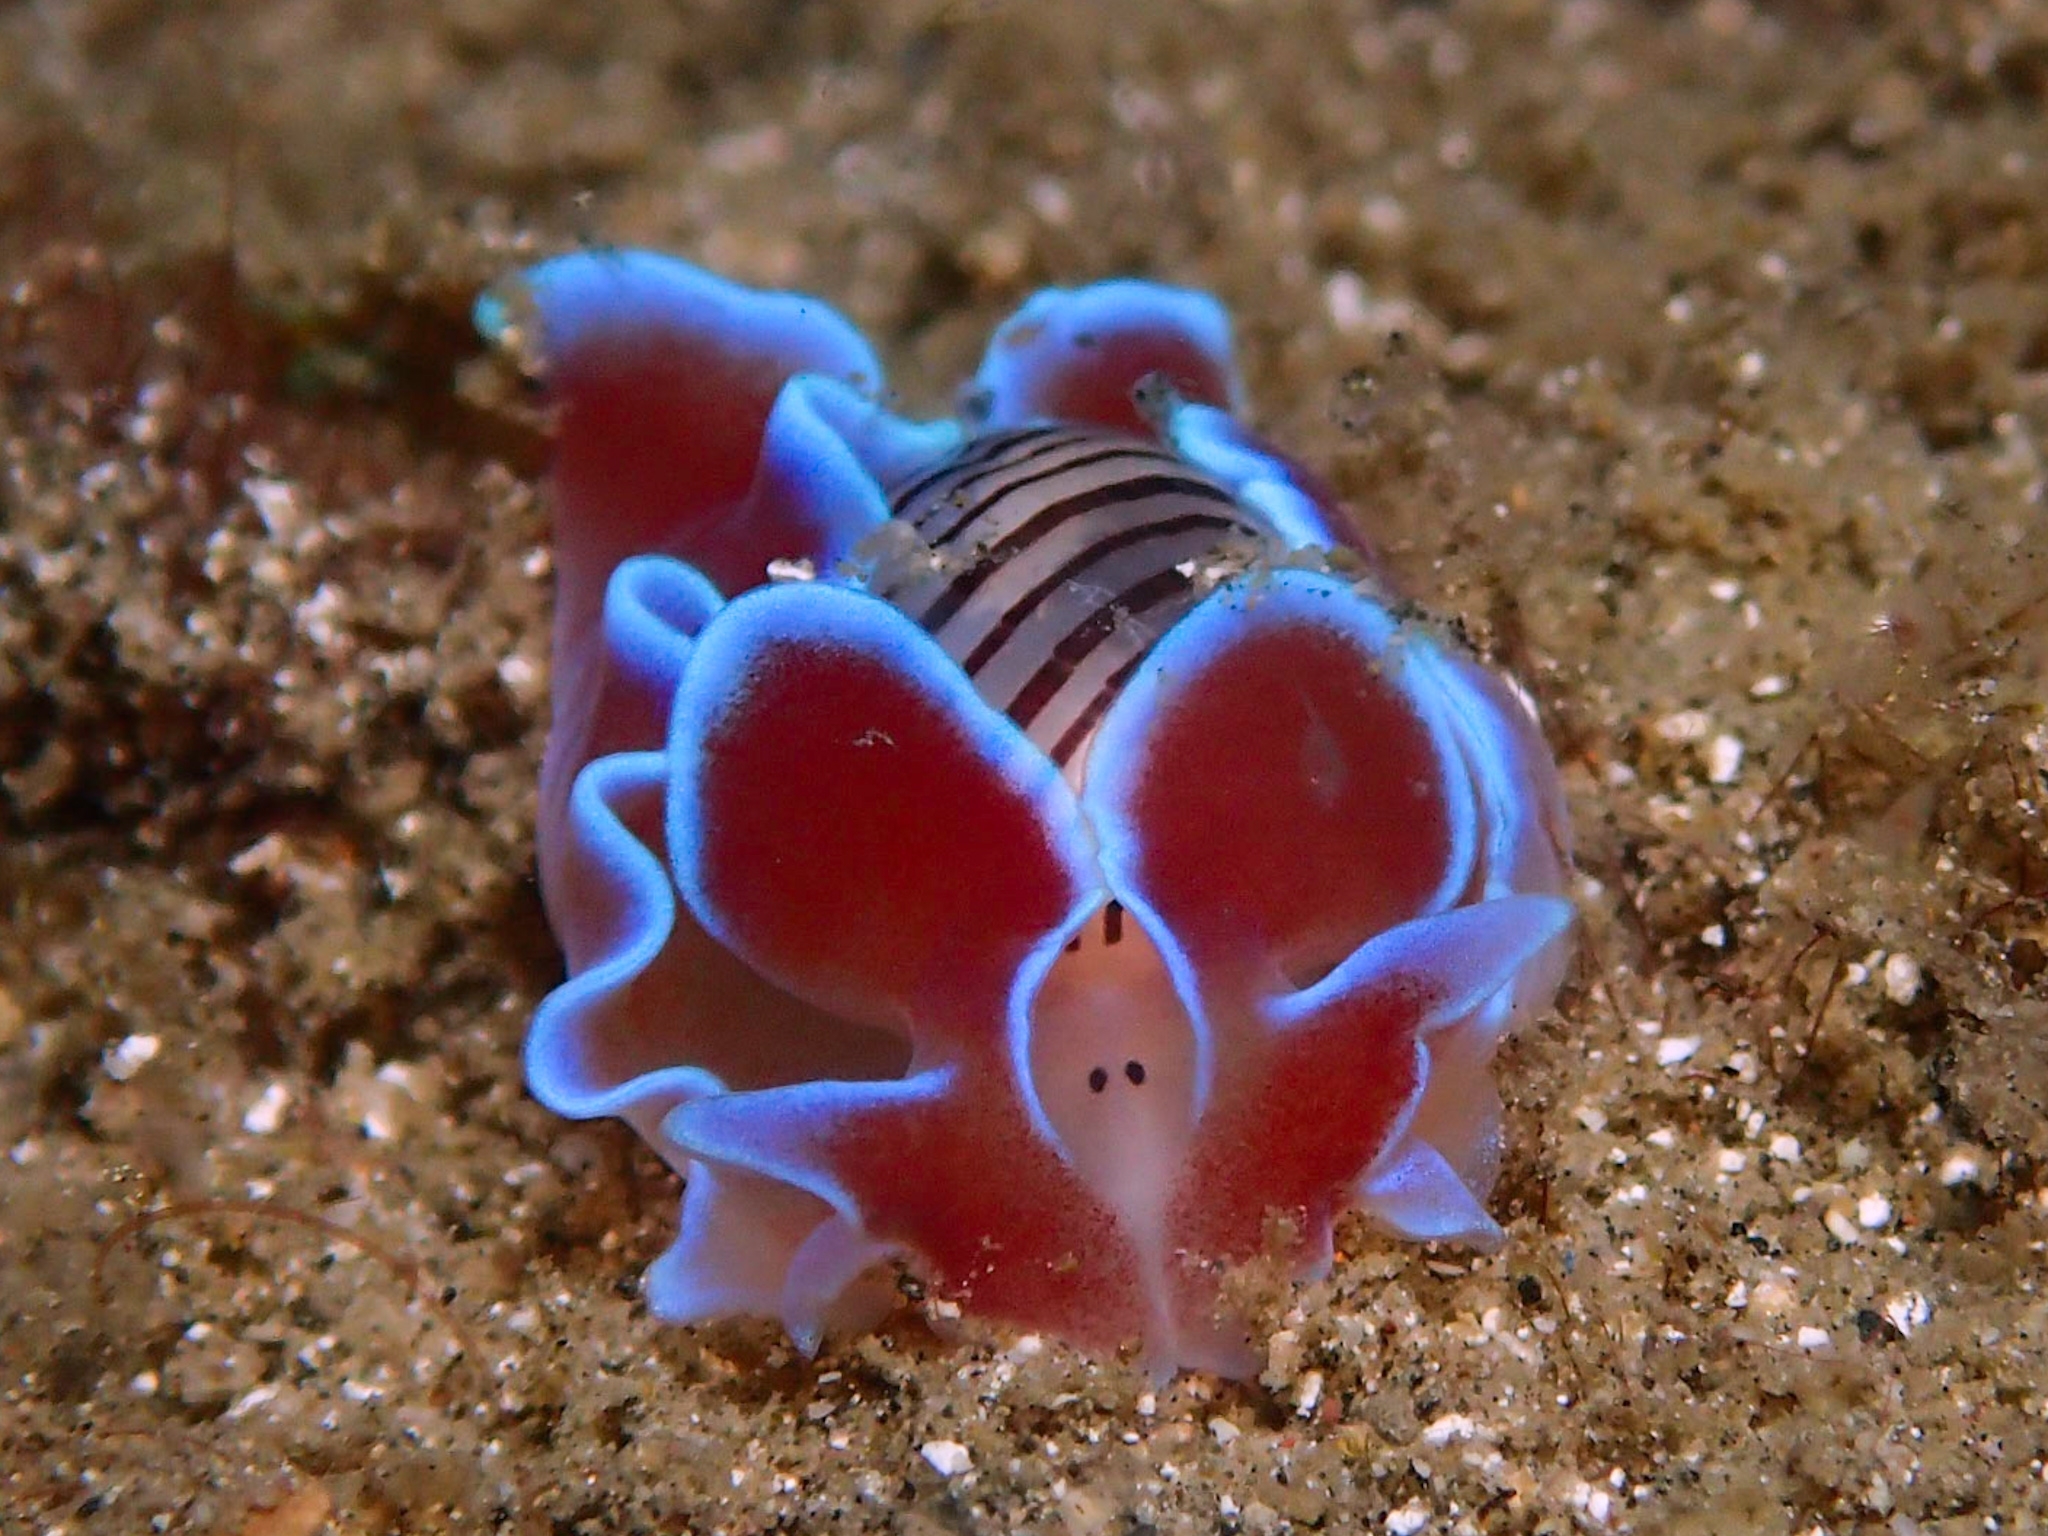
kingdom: Animalia
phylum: Mollusca
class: Gastropoda
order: Cephalaspidea
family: Aplustridae
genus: Hydatina
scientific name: Hydatina physis
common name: Brown-line paperbubble
